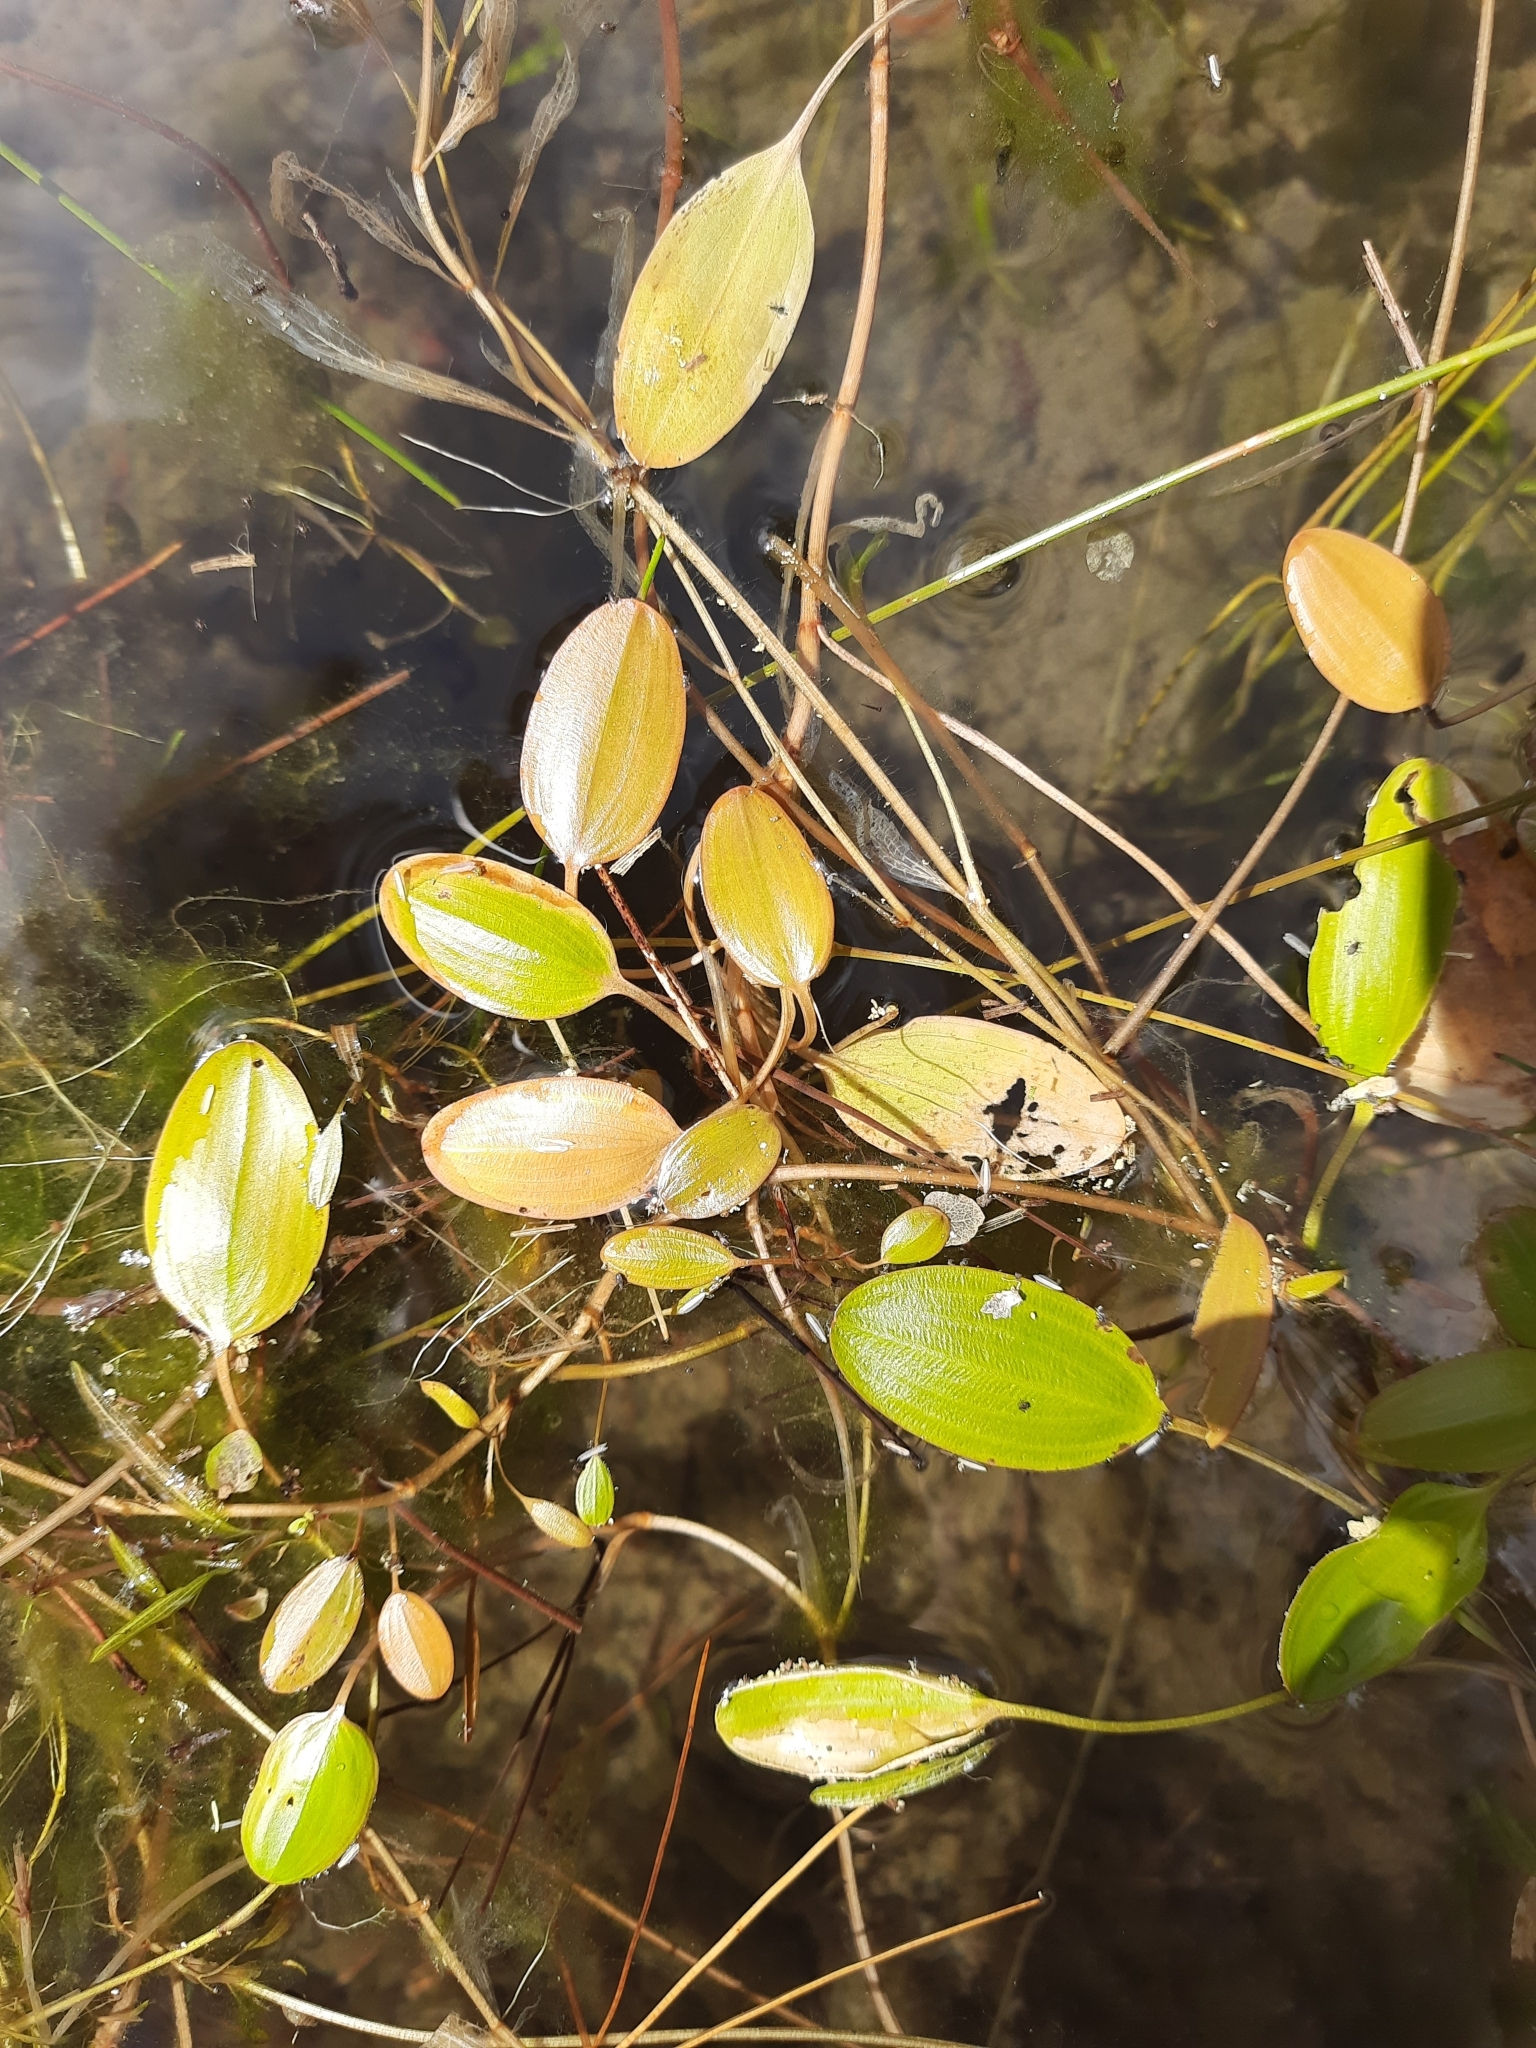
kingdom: Plantae
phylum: Tracheophyta
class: Liliopsida
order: Alismatales
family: Potamogetonaceae
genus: Potamogeton
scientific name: Potamogeton cheesemanii
